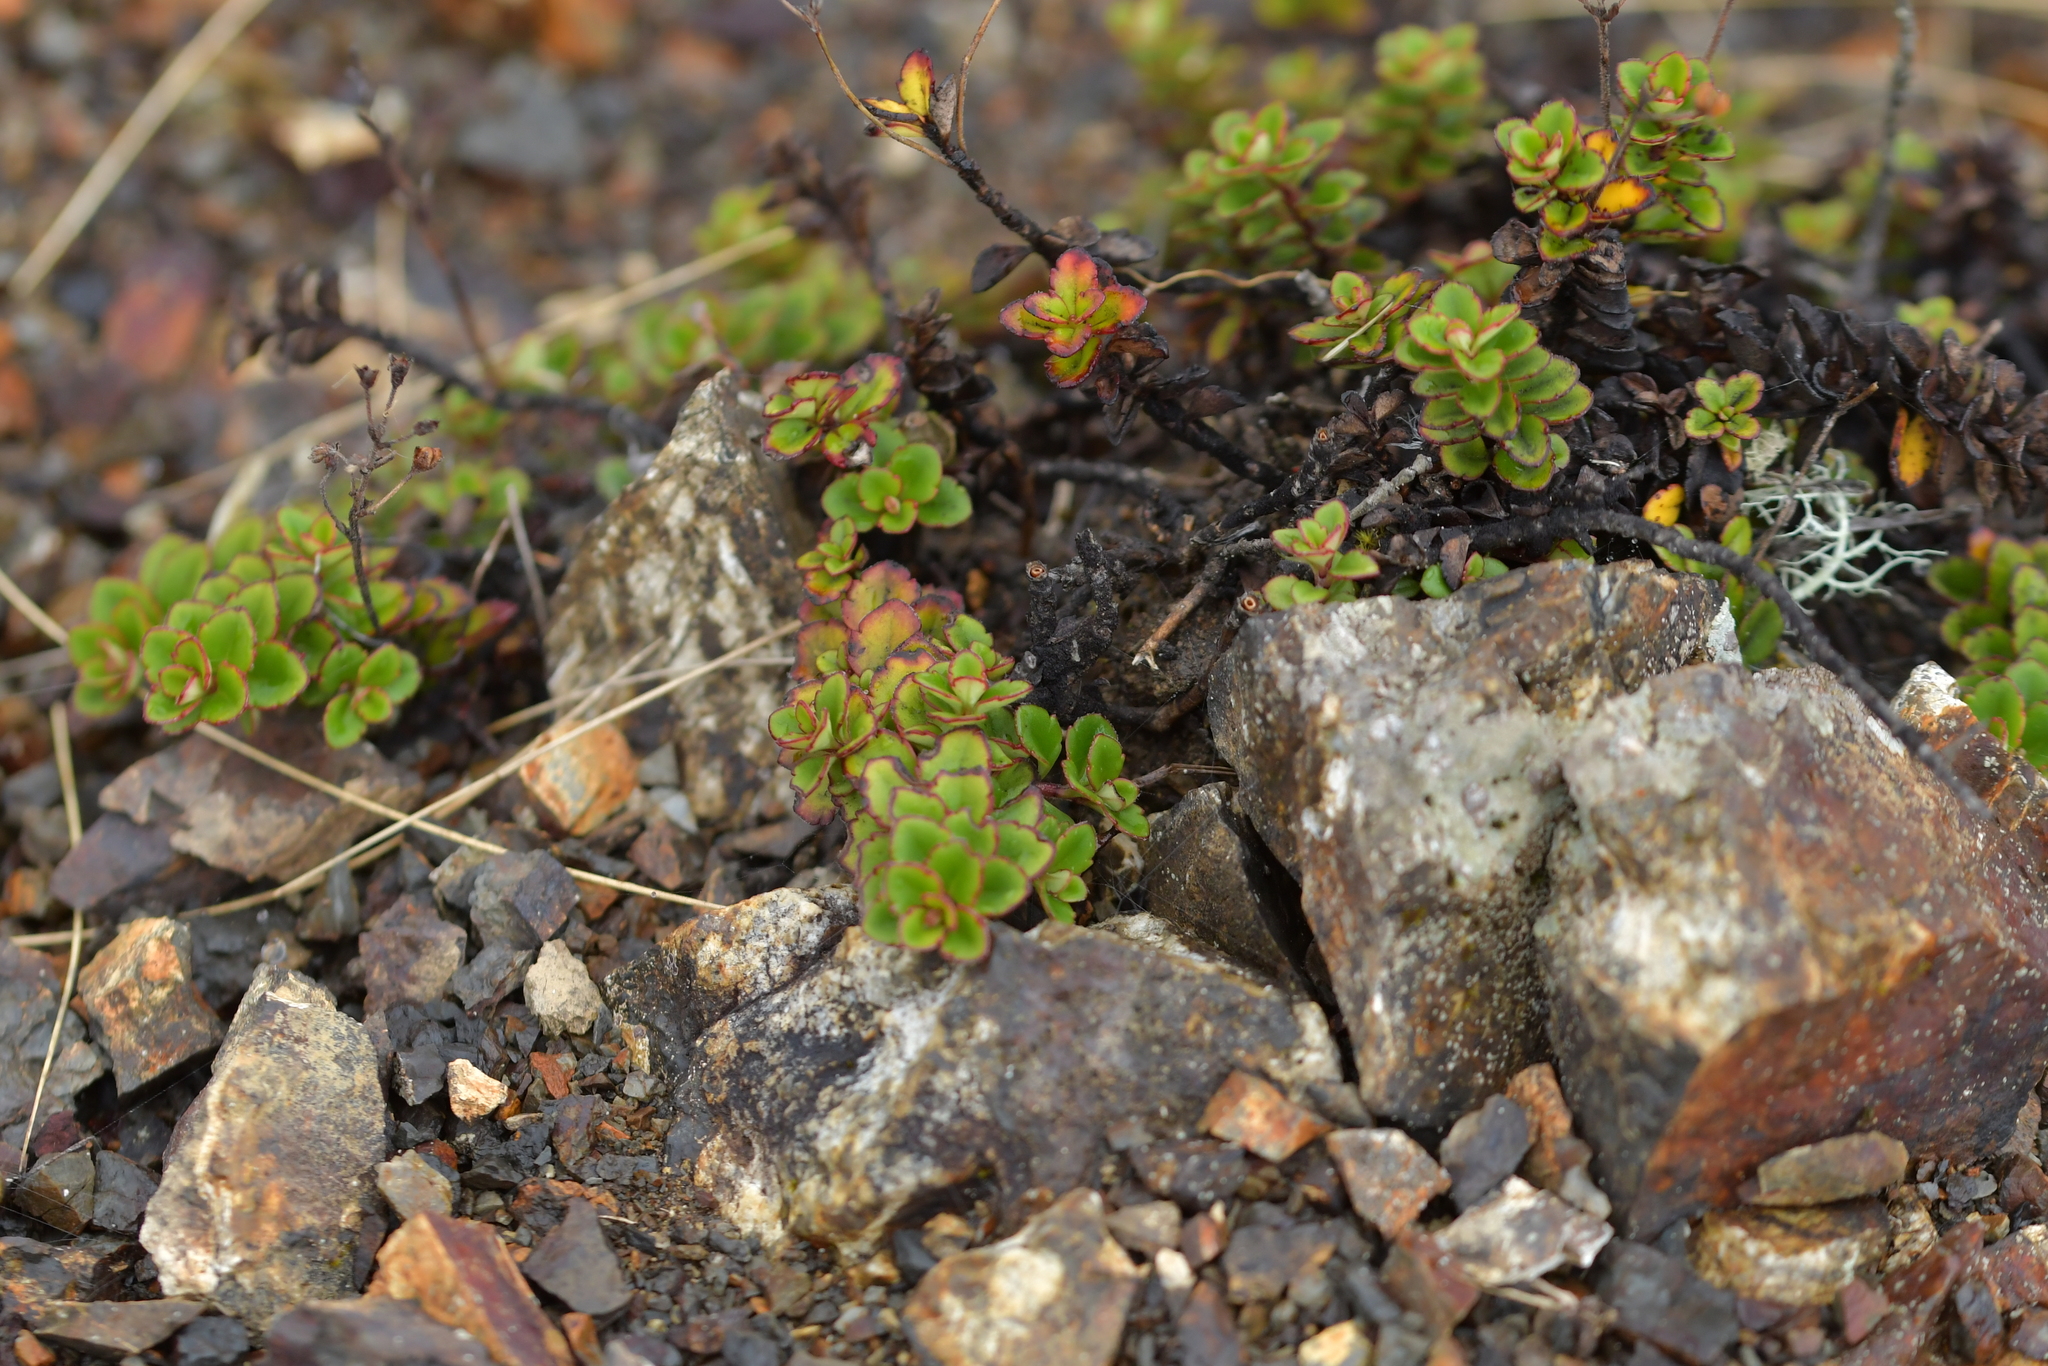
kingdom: Plantae
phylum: Tracheophyta
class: Magnoliopsida
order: Lamiales
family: Plantaginaceae
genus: Veronica
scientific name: Veronica hookeriana
